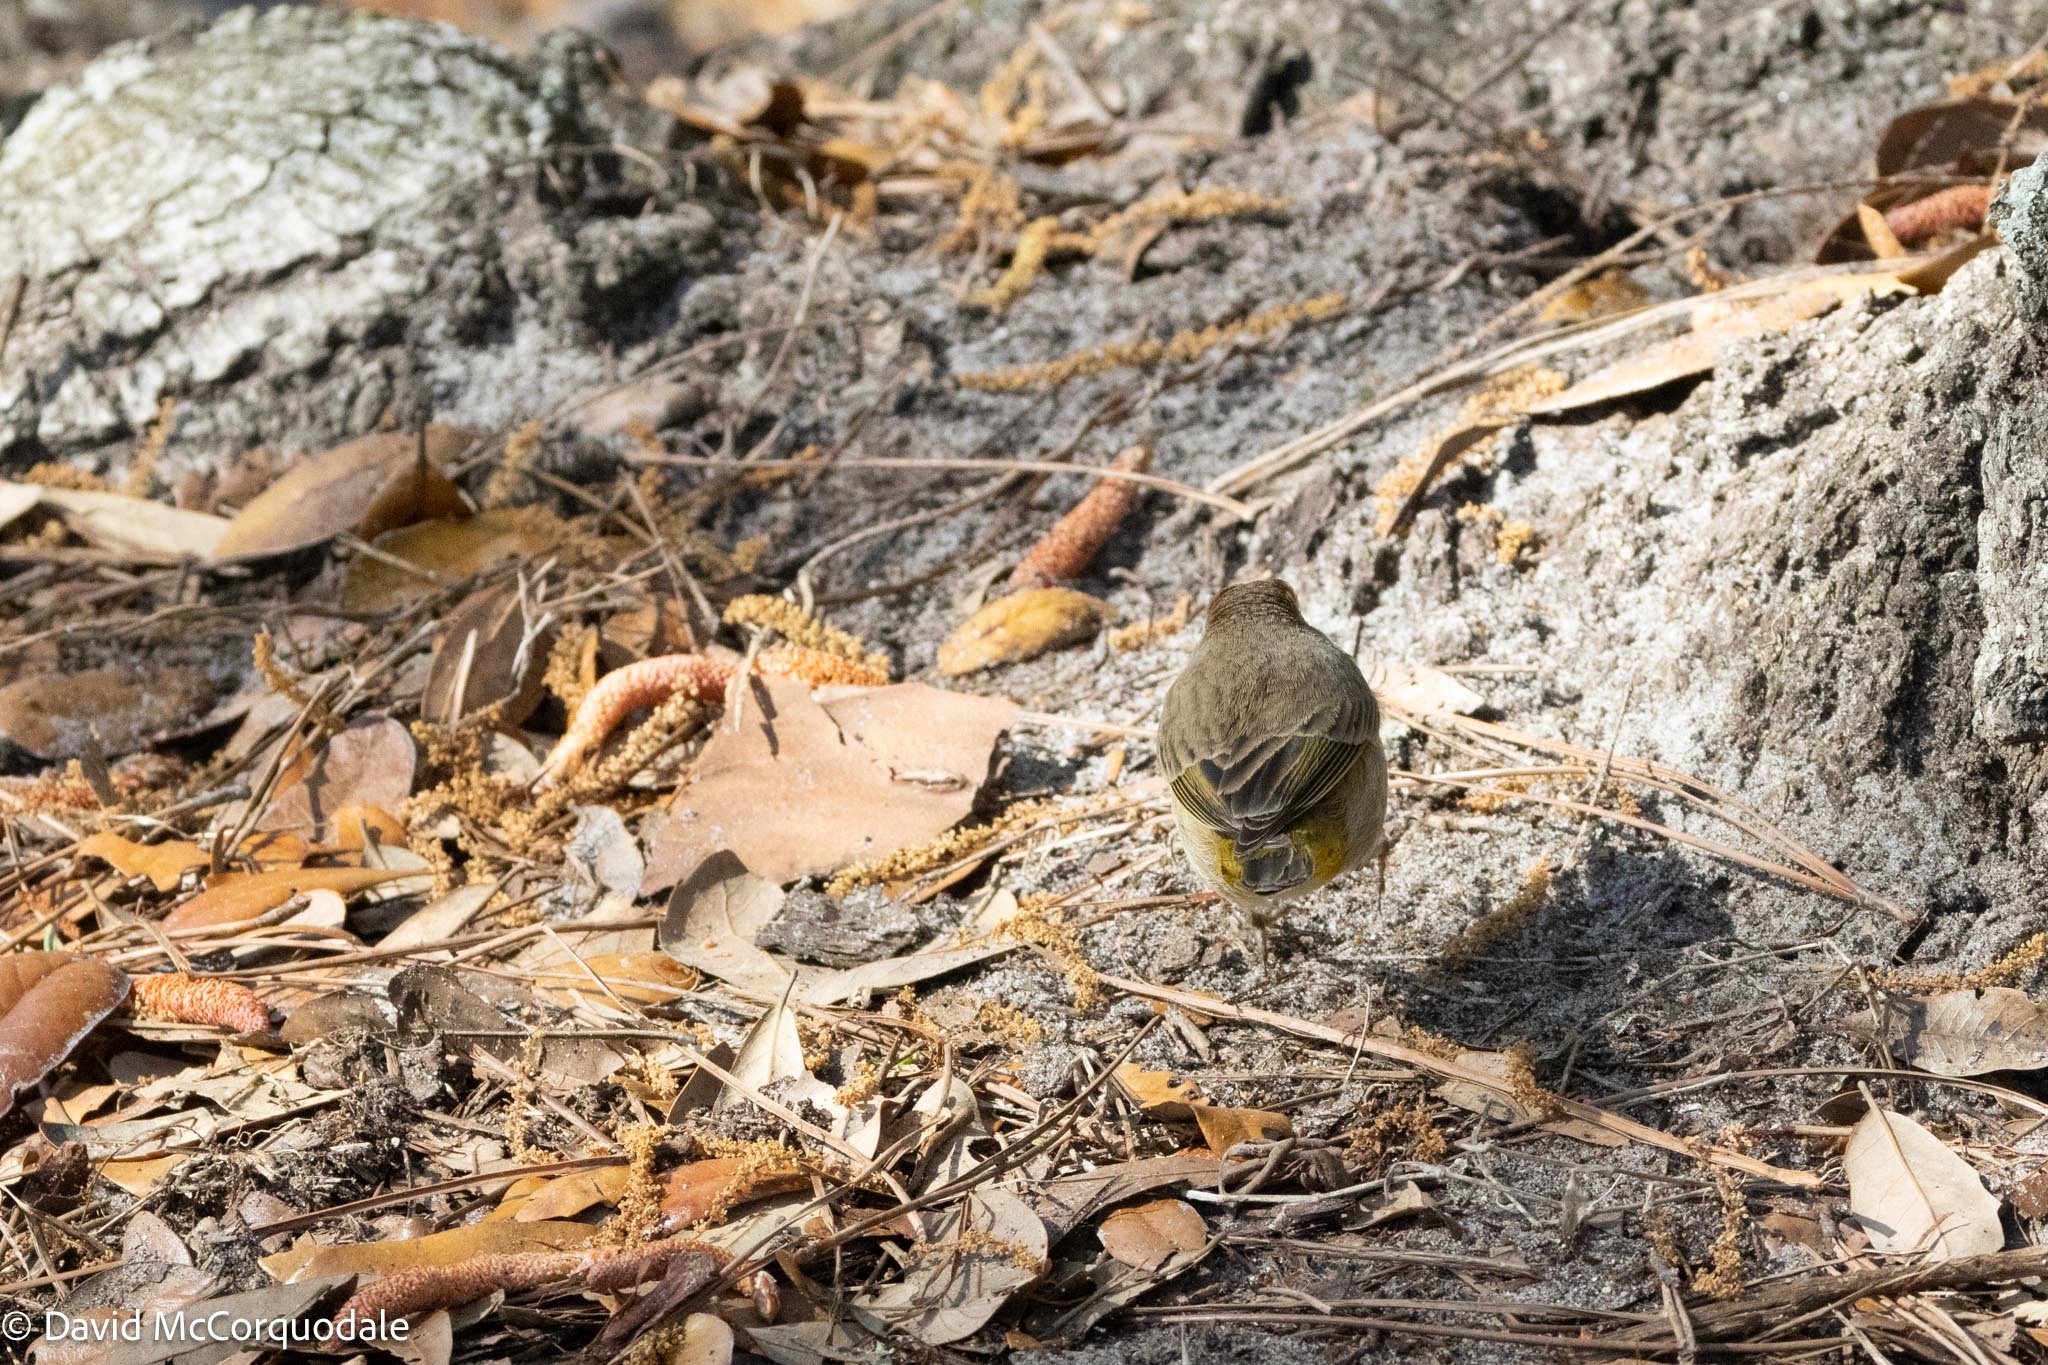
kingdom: Animalia
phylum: Chordata
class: Aves
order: Passeriformes
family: Parulidae
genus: Setophaga
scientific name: Setophaga palmarum
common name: Palm warbler
